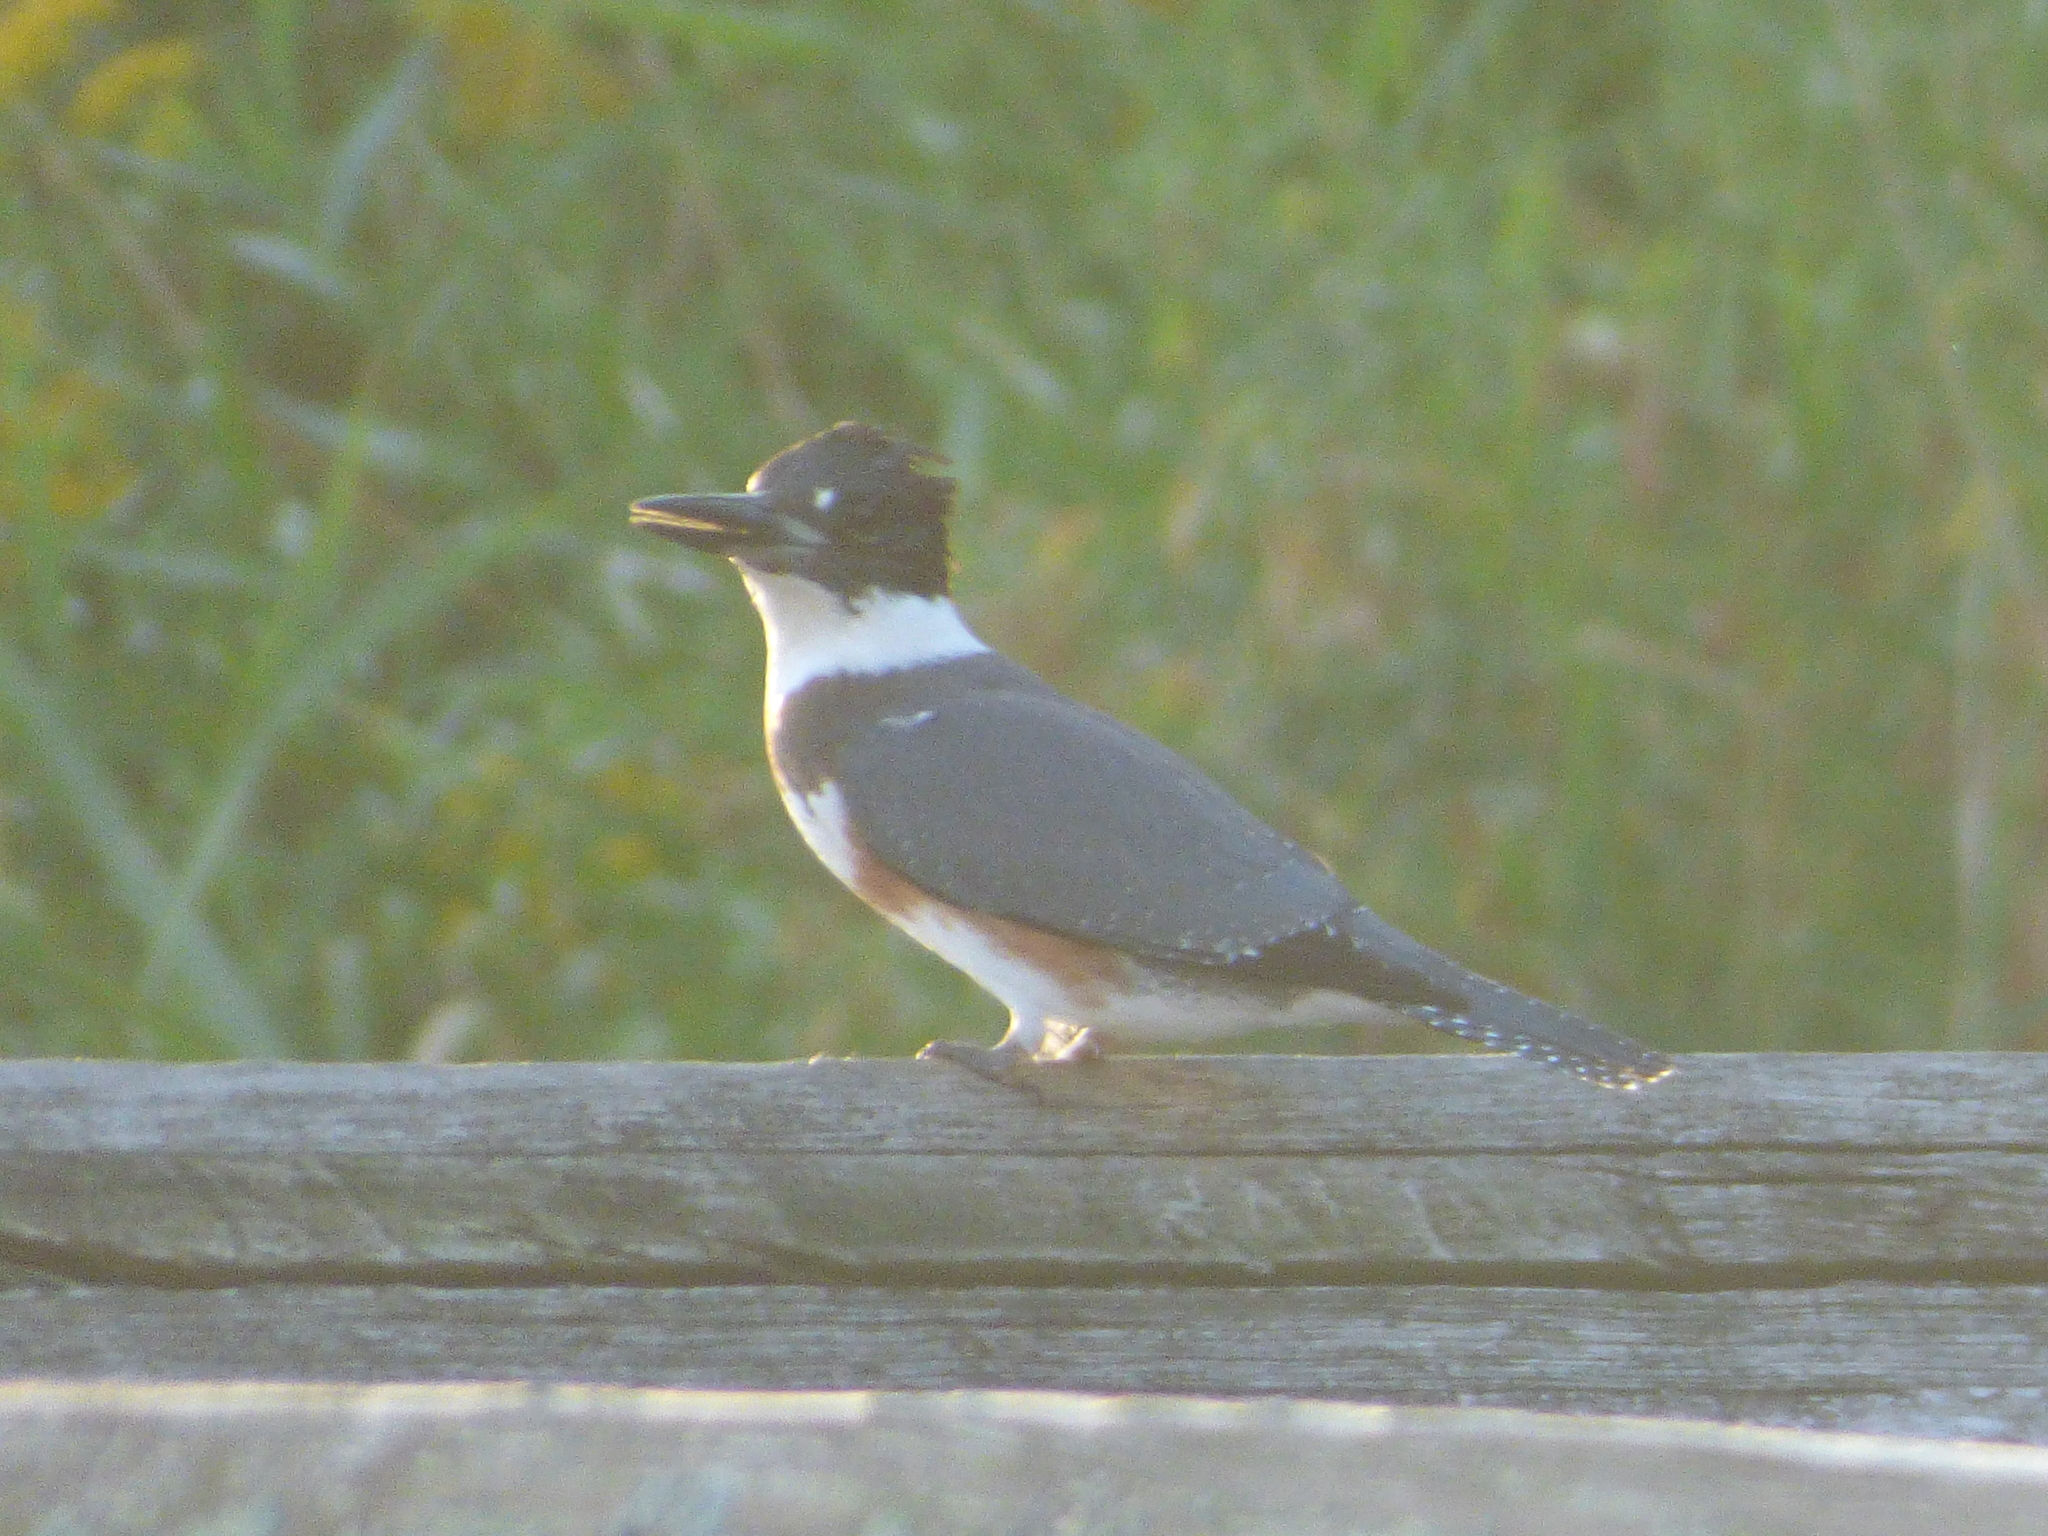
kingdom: Animalia
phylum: Chordata
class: Aves
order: Coraciiformes
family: Alcedinidae
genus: Megaceryle
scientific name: Megaceryle alcyon
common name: Belted kingfisher
